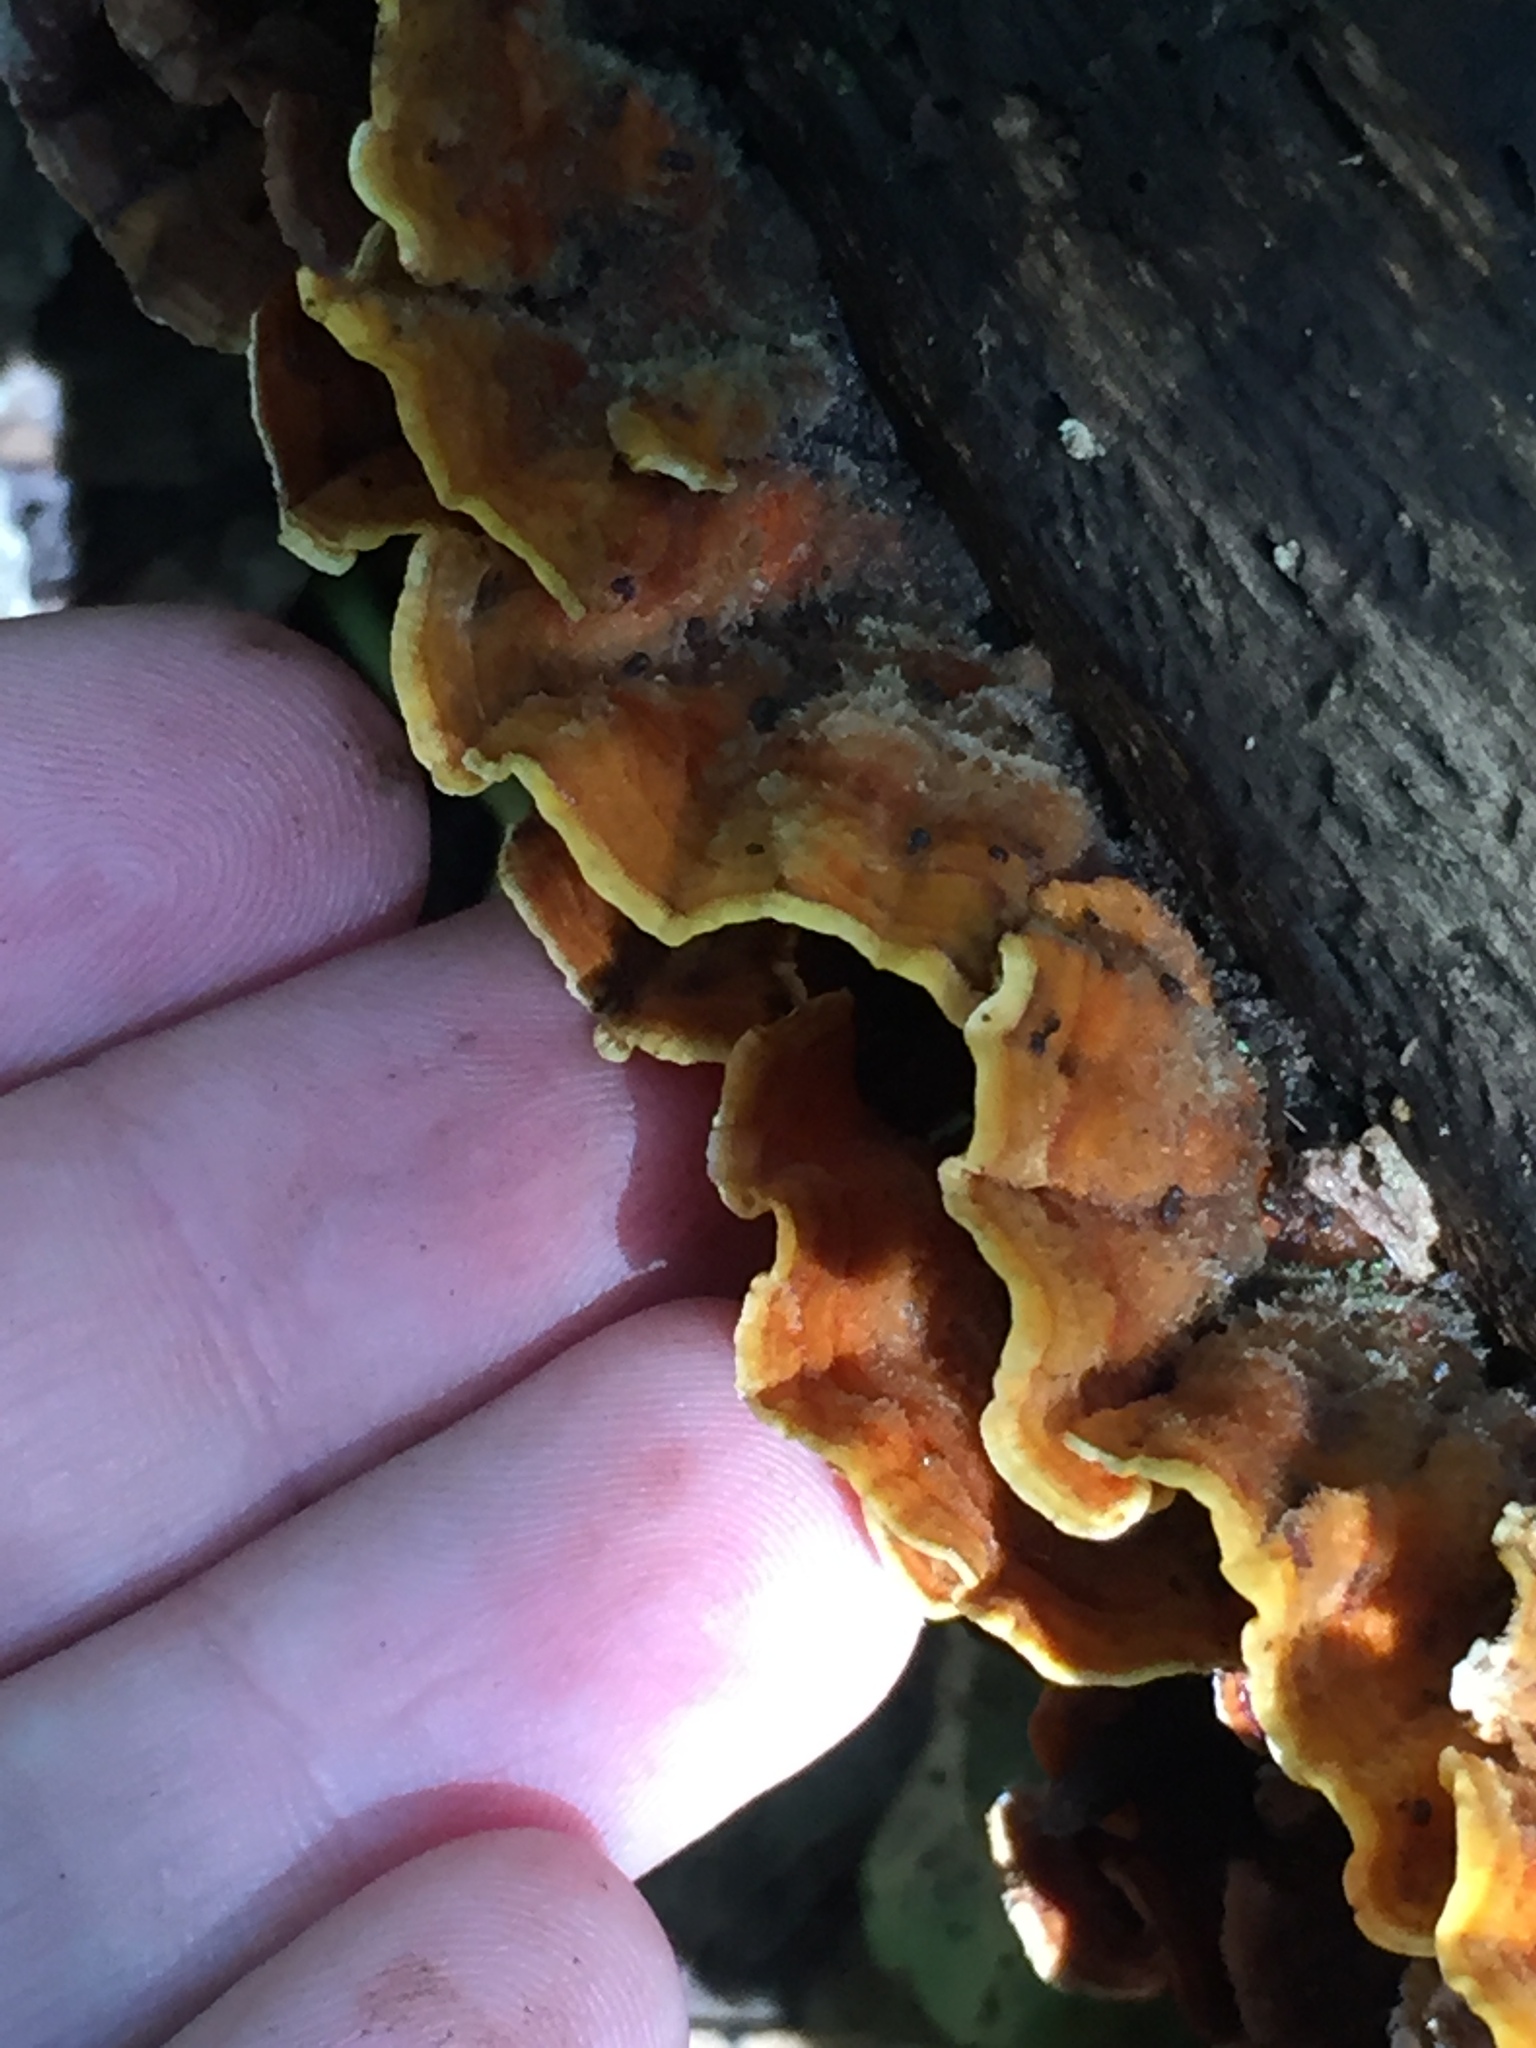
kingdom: Fungi
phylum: Basidiomycota
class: Agaricomycetes
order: Russulales
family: Stereaceae
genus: Stereum
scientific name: Stereum hirsutum
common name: Hairy curtain crust
